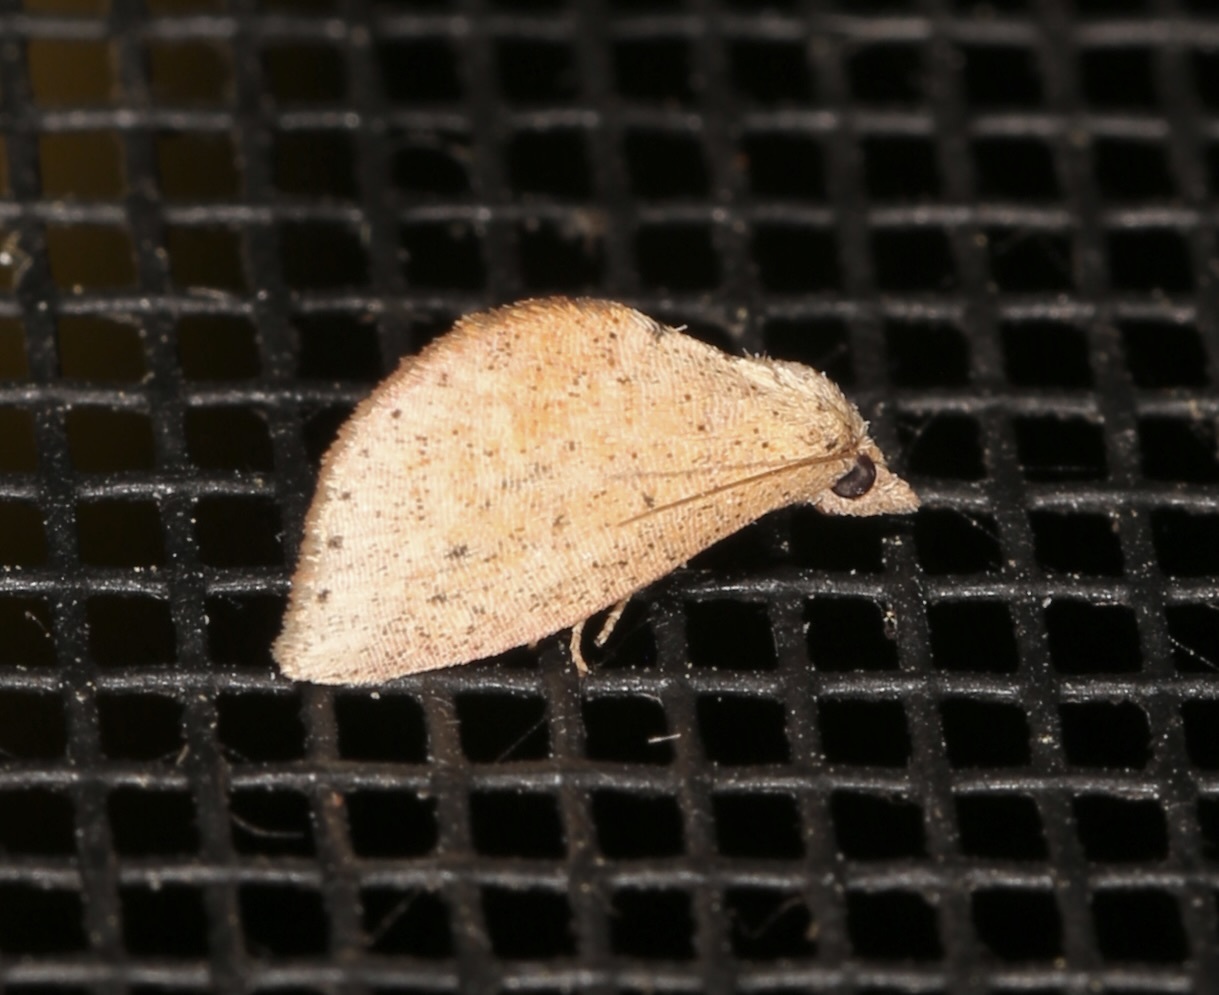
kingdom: Animalia
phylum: Arthropoda
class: Insecta
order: Lepidoptera
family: Noctuidae
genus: Proroblemma
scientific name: Proroblemma testa
